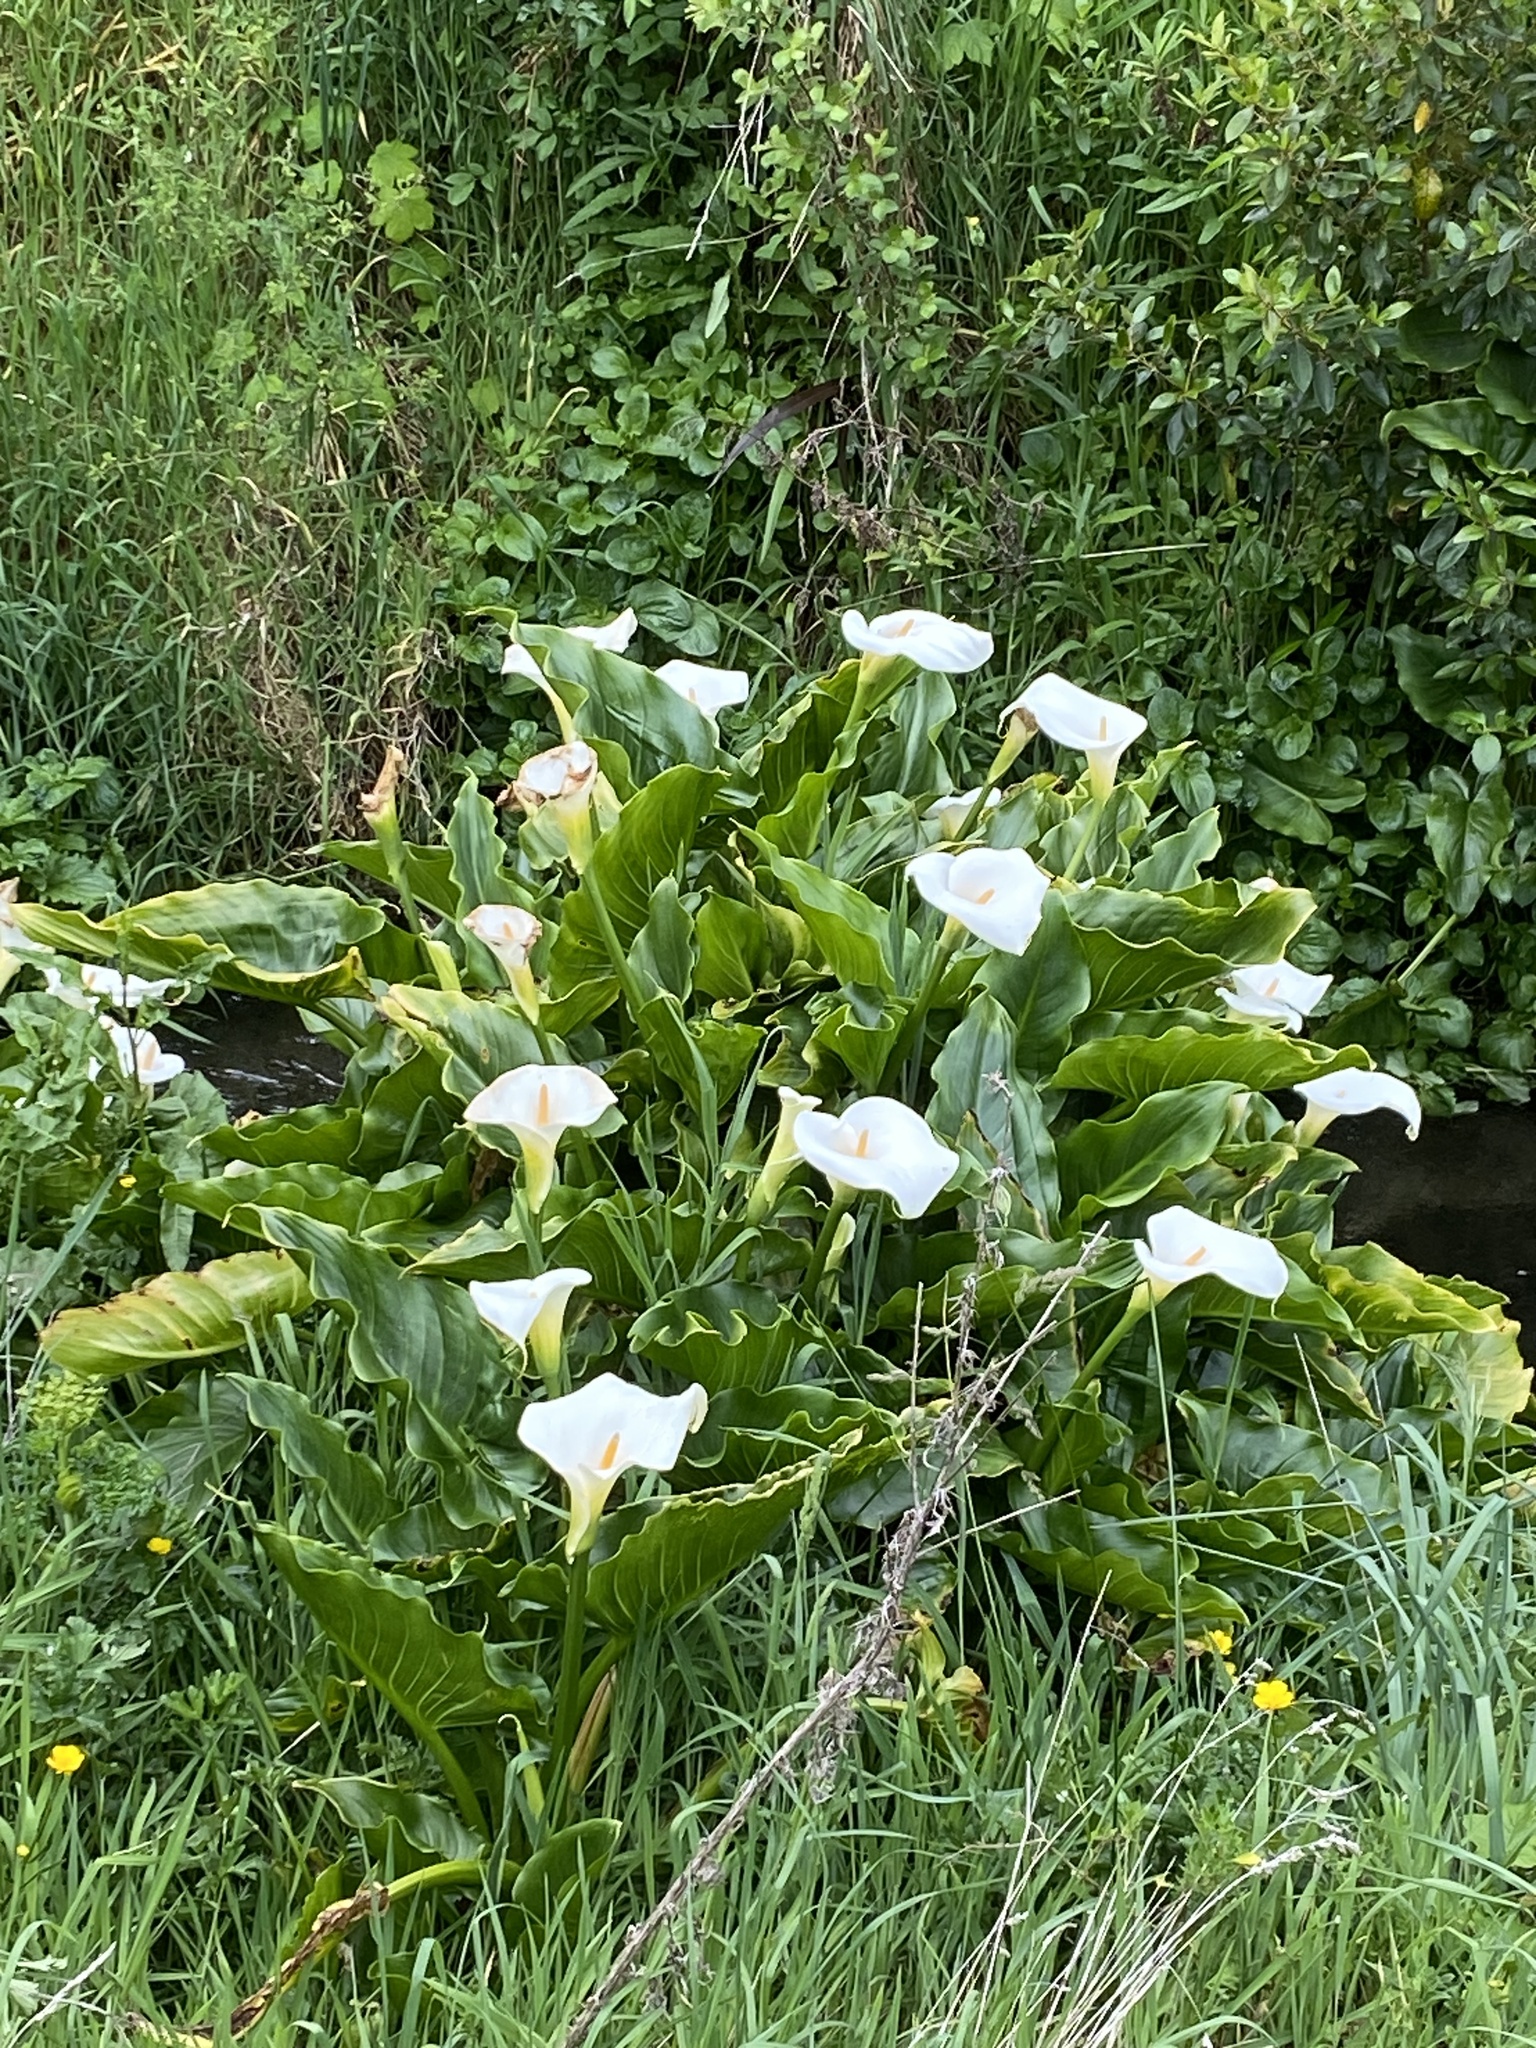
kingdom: Plantae
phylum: Tracheophyta
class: Liliopsida
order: Alismatales
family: Araceae
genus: Zantedeschia
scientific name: Zantedeschia aethiopica
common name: Altar-lily
